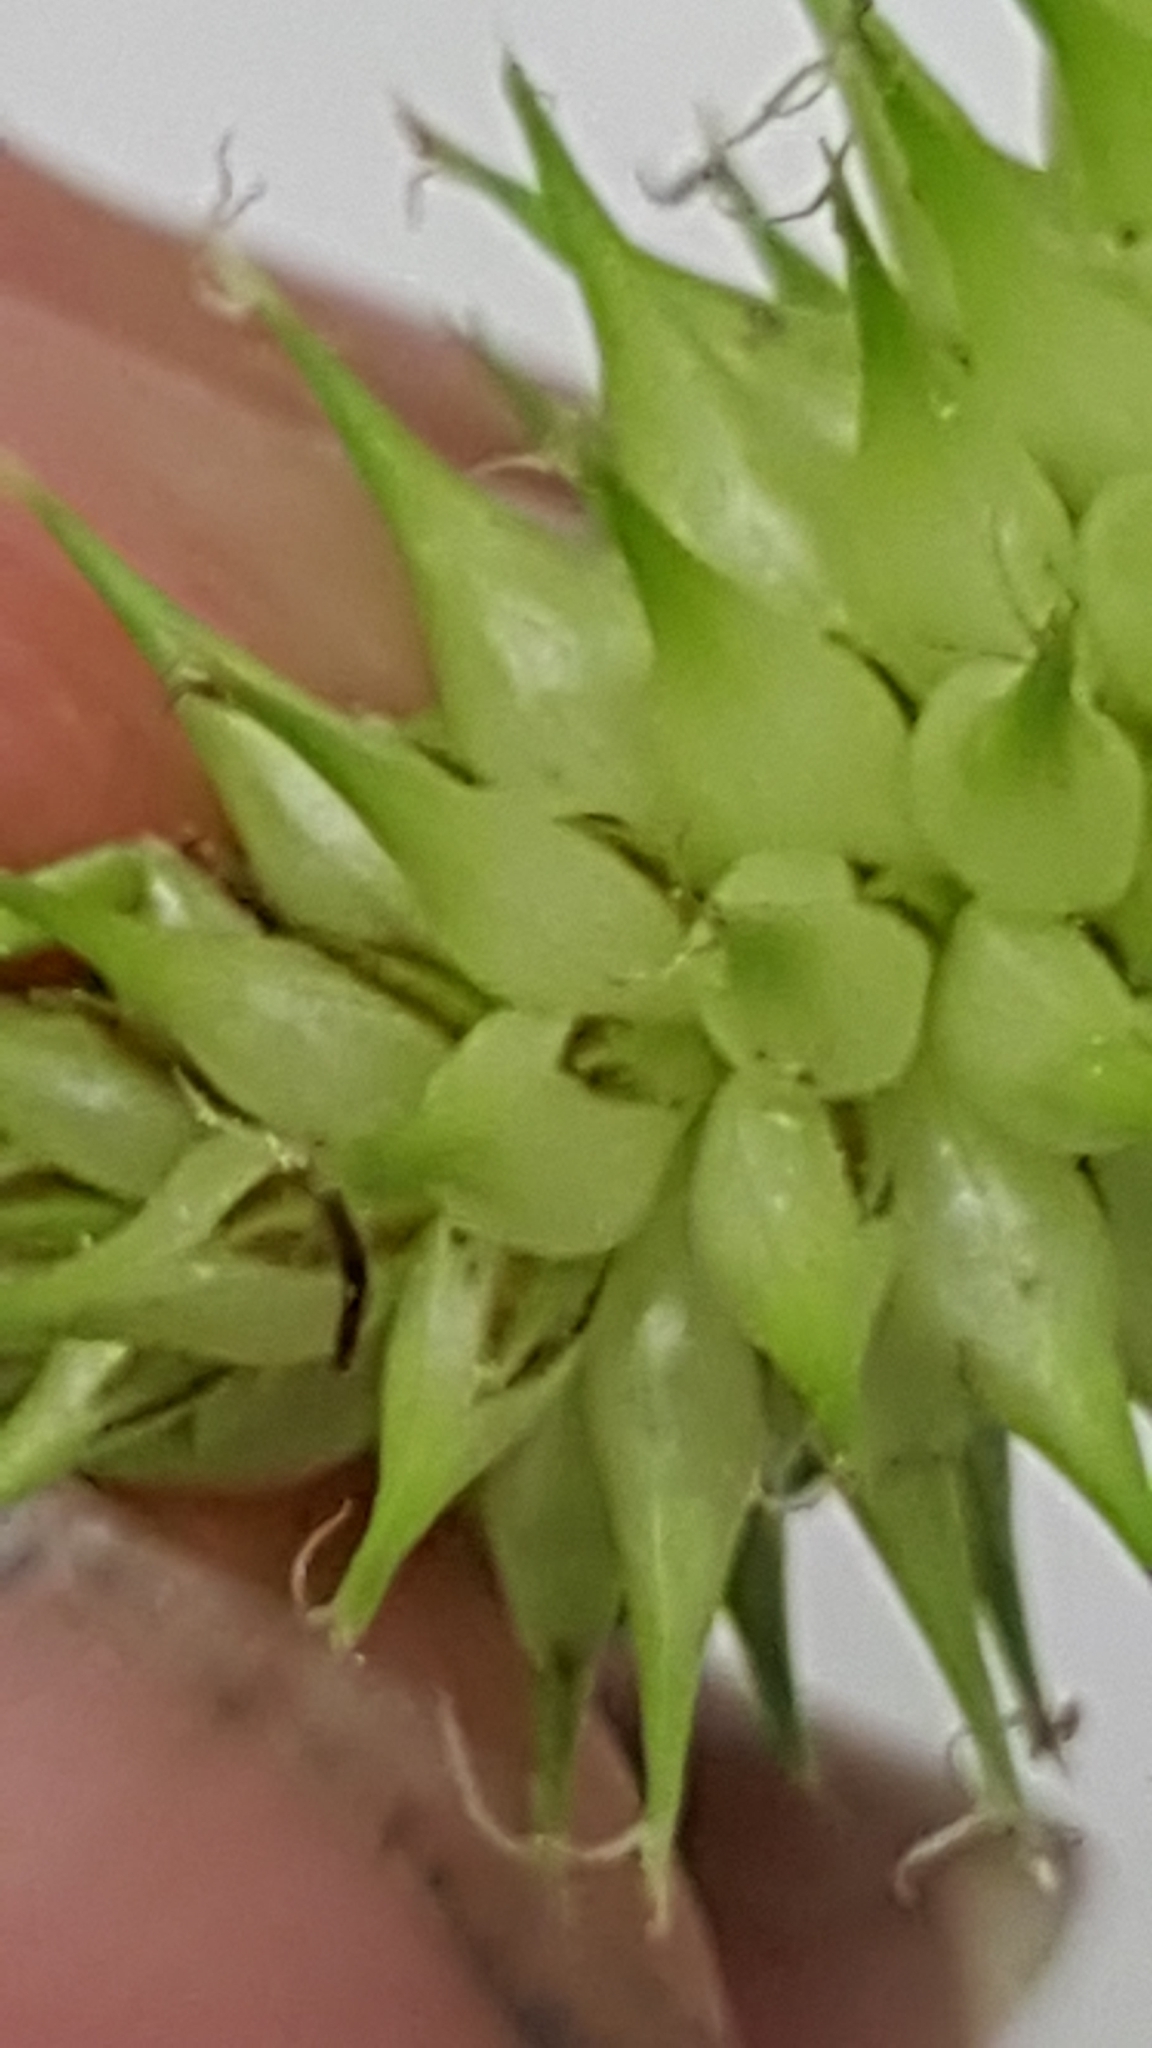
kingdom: Plantae
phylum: Tracheophyta
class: Liliopsida
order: Poales
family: Cyperaceae
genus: Carex
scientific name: Carex retrorsa
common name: Knot-sheath sedge
